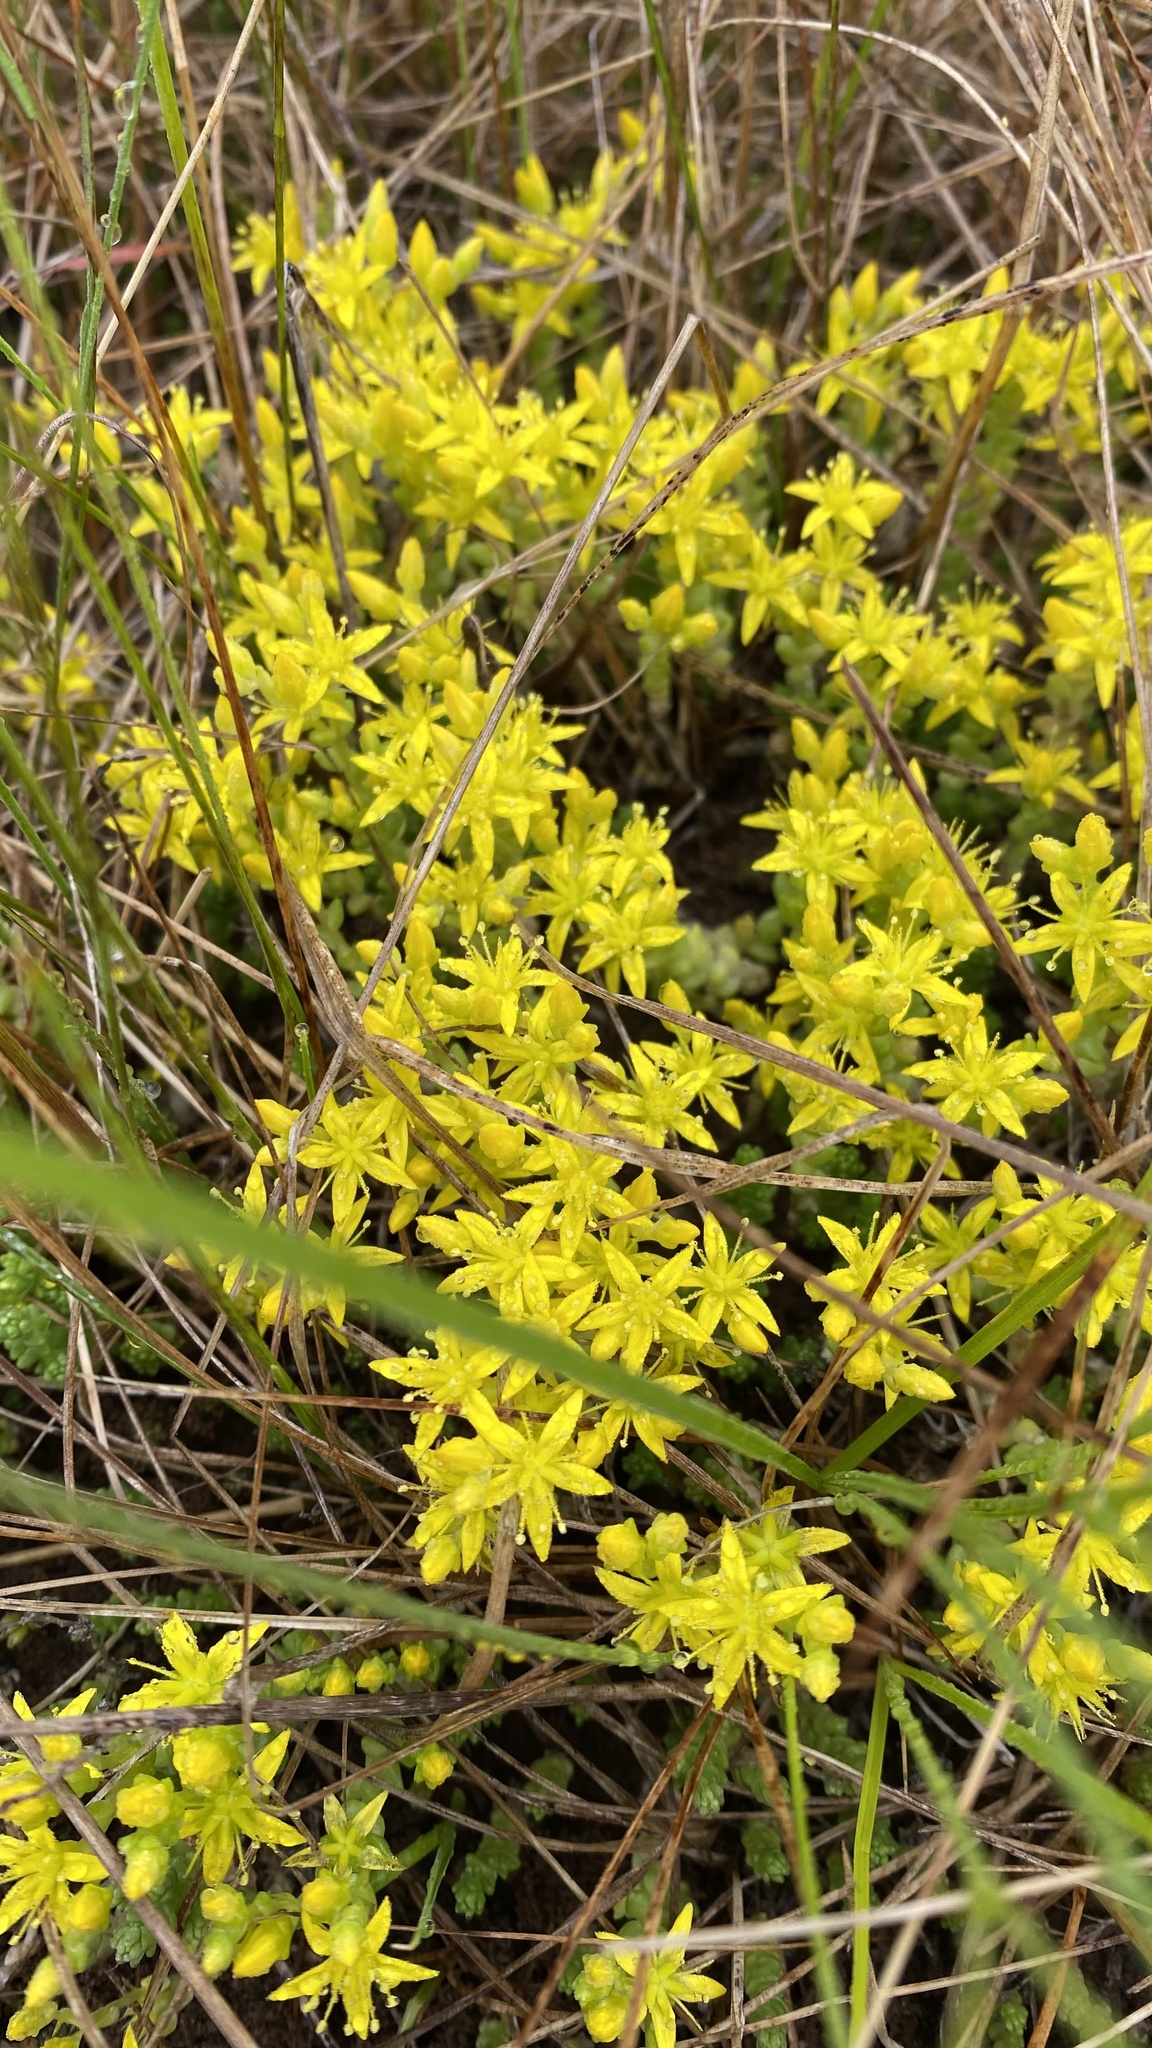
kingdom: Plantae
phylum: Tracheophyta
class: Magnoliopsida
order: Saxifragales
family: Crassulaceae
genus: Sedum
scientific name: Sedum acre
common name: Biting stonecrop
